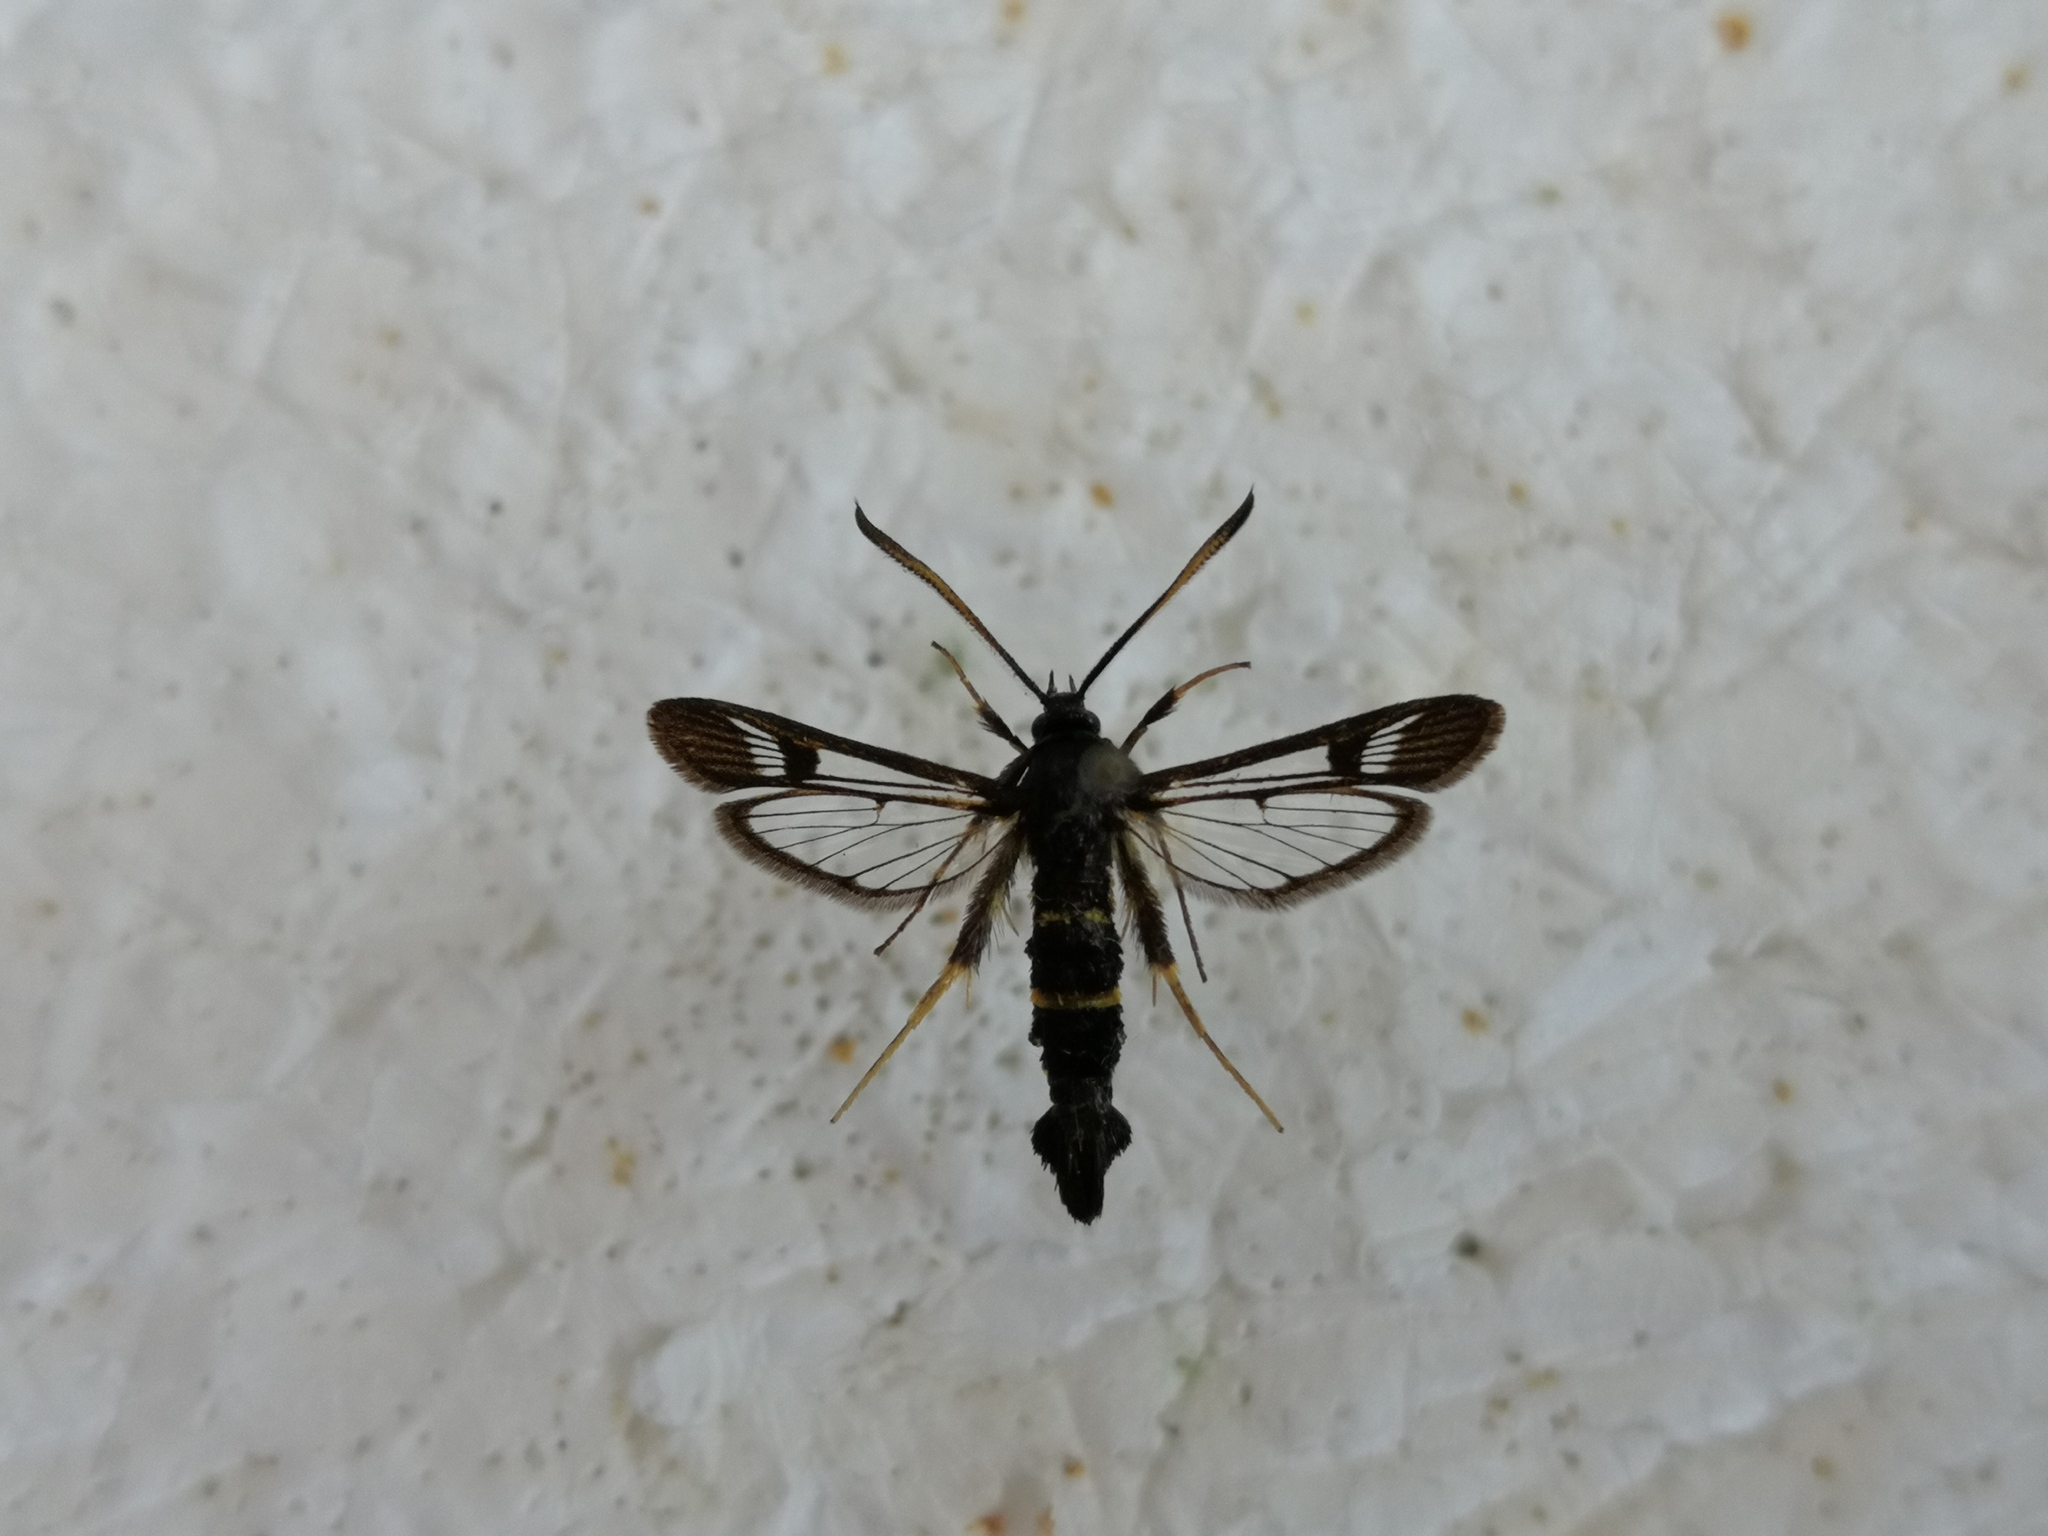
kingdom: Animalia
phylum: Arthropoda
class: Insecta
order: Lepidoptera
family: Sesiidae
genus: Synanthedon
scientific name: Synanthedon flaviventris
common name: Sallow clearwing
